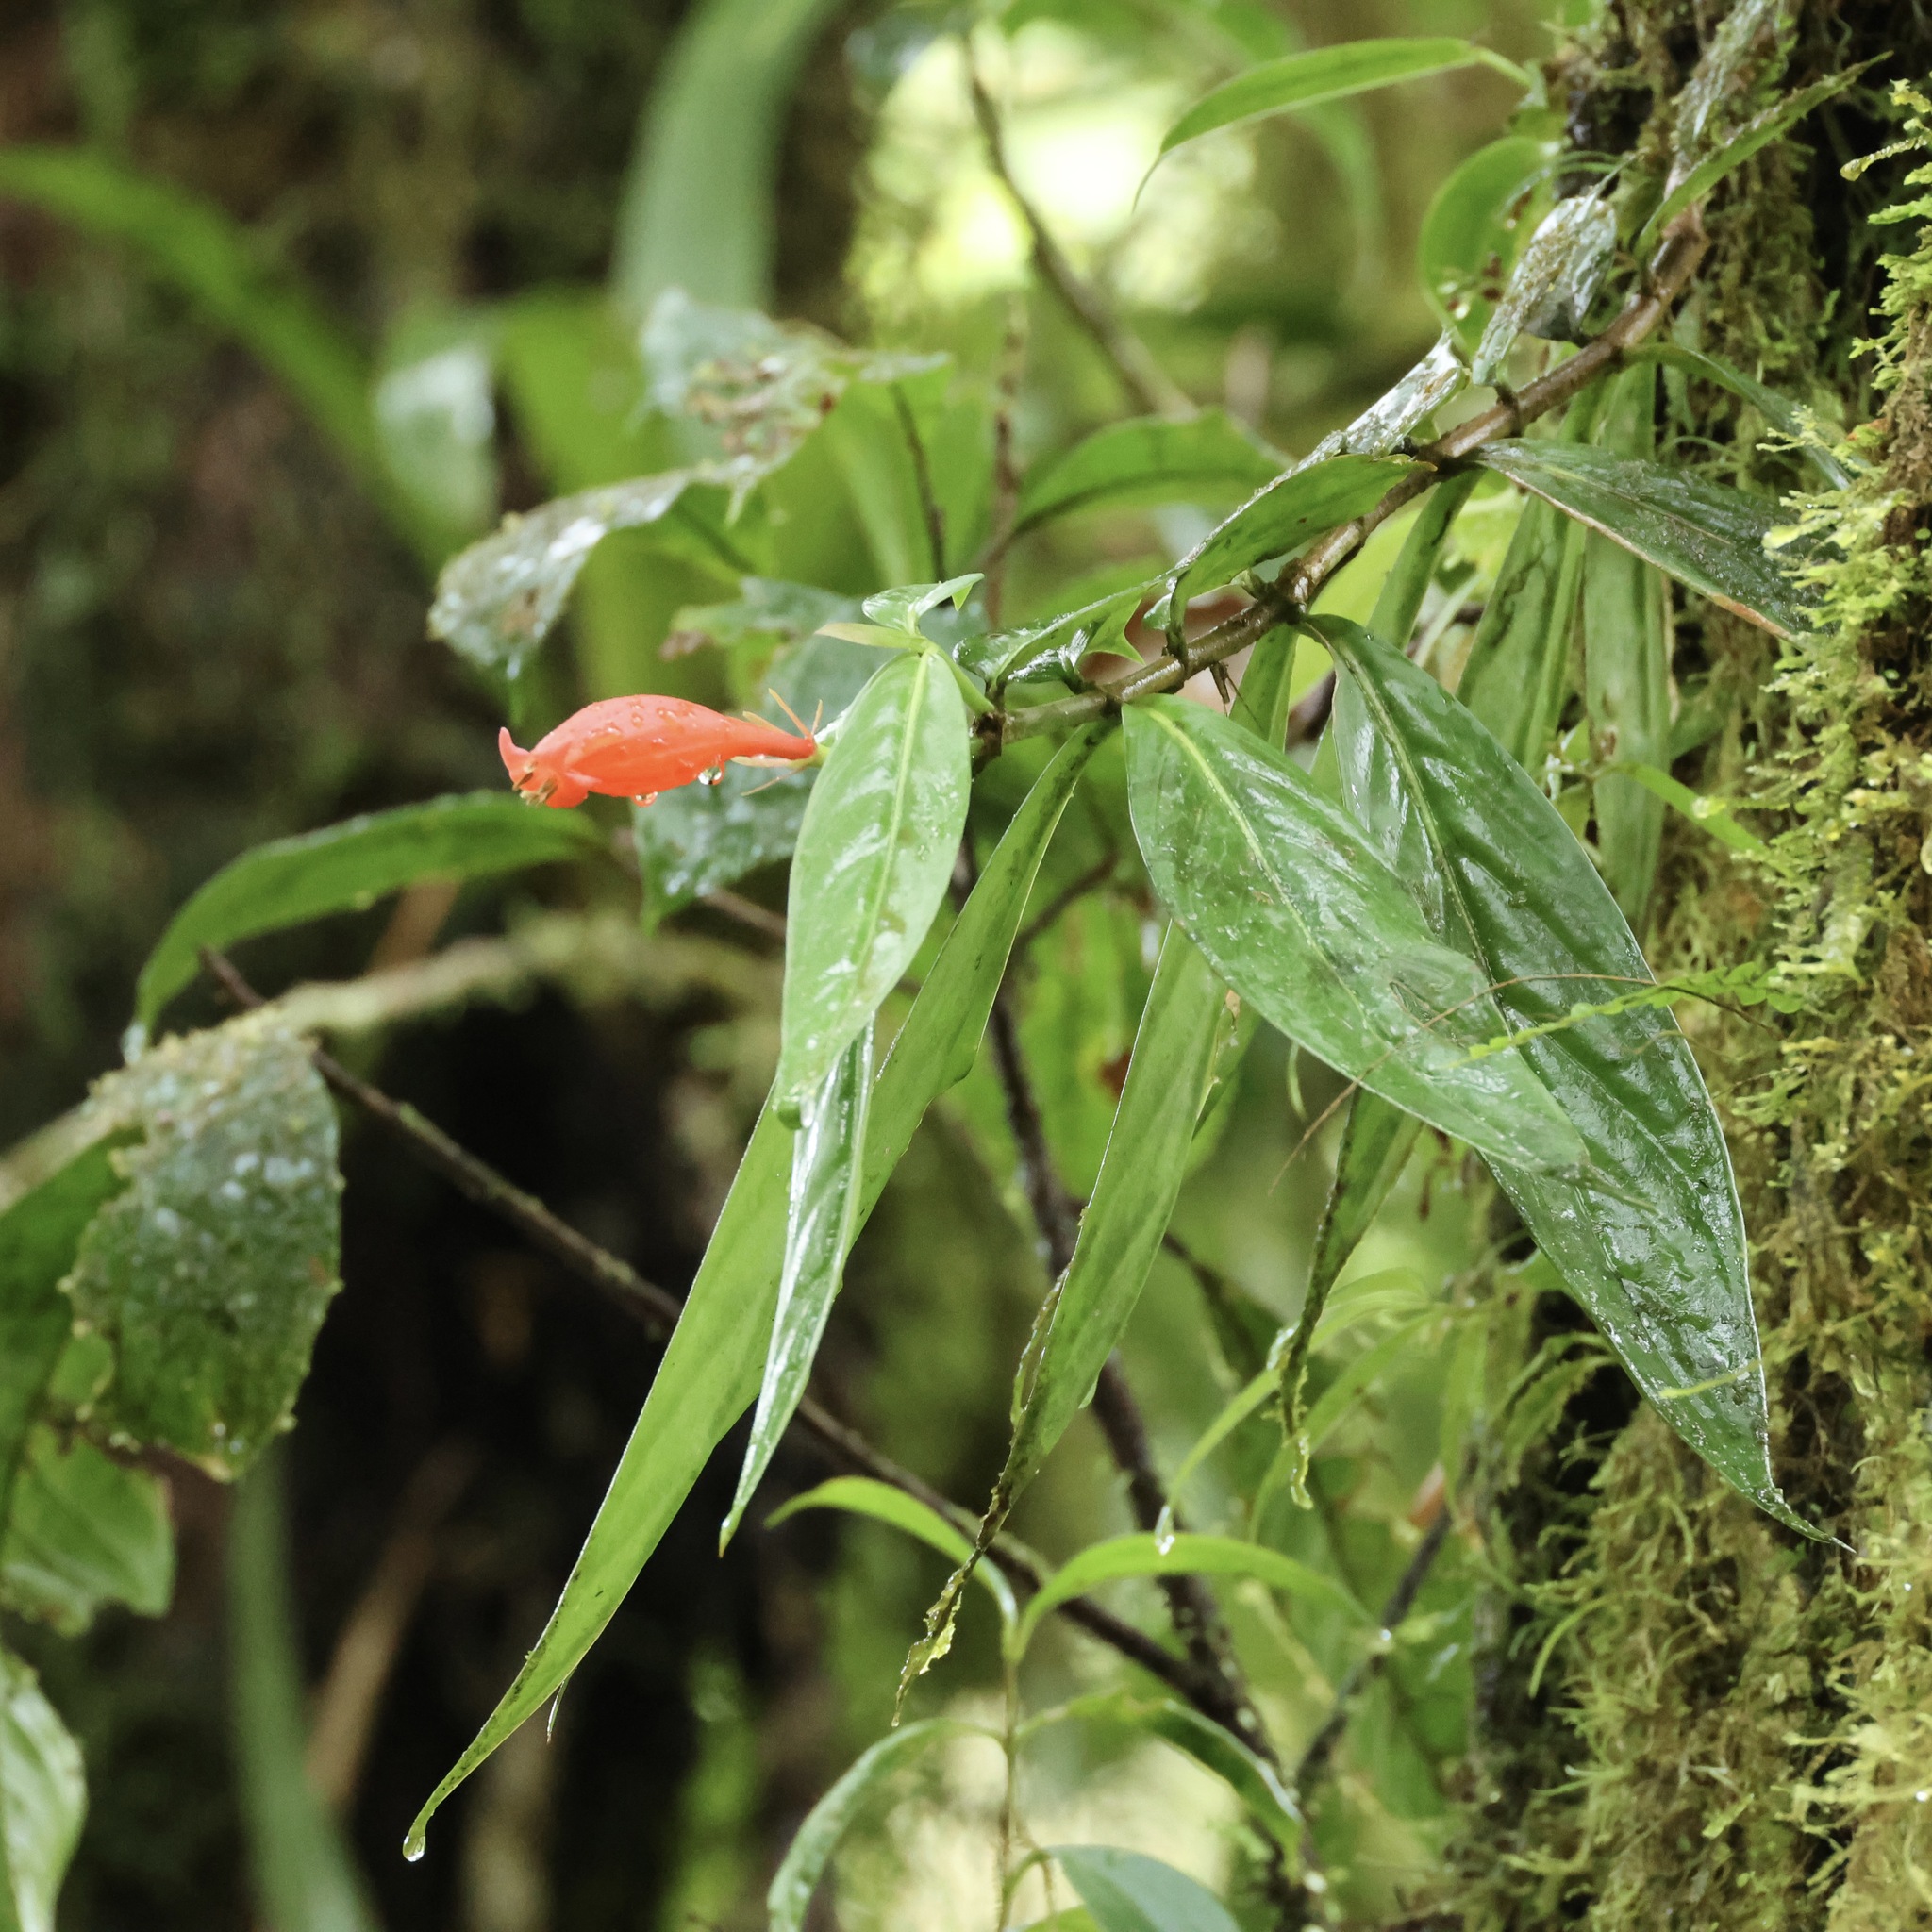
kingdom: Plantae
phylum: Tracheophyta
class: Magnoliopsida
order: Gentianales
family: Rubiaceae
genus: Hillia
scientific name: Hillia triflora
